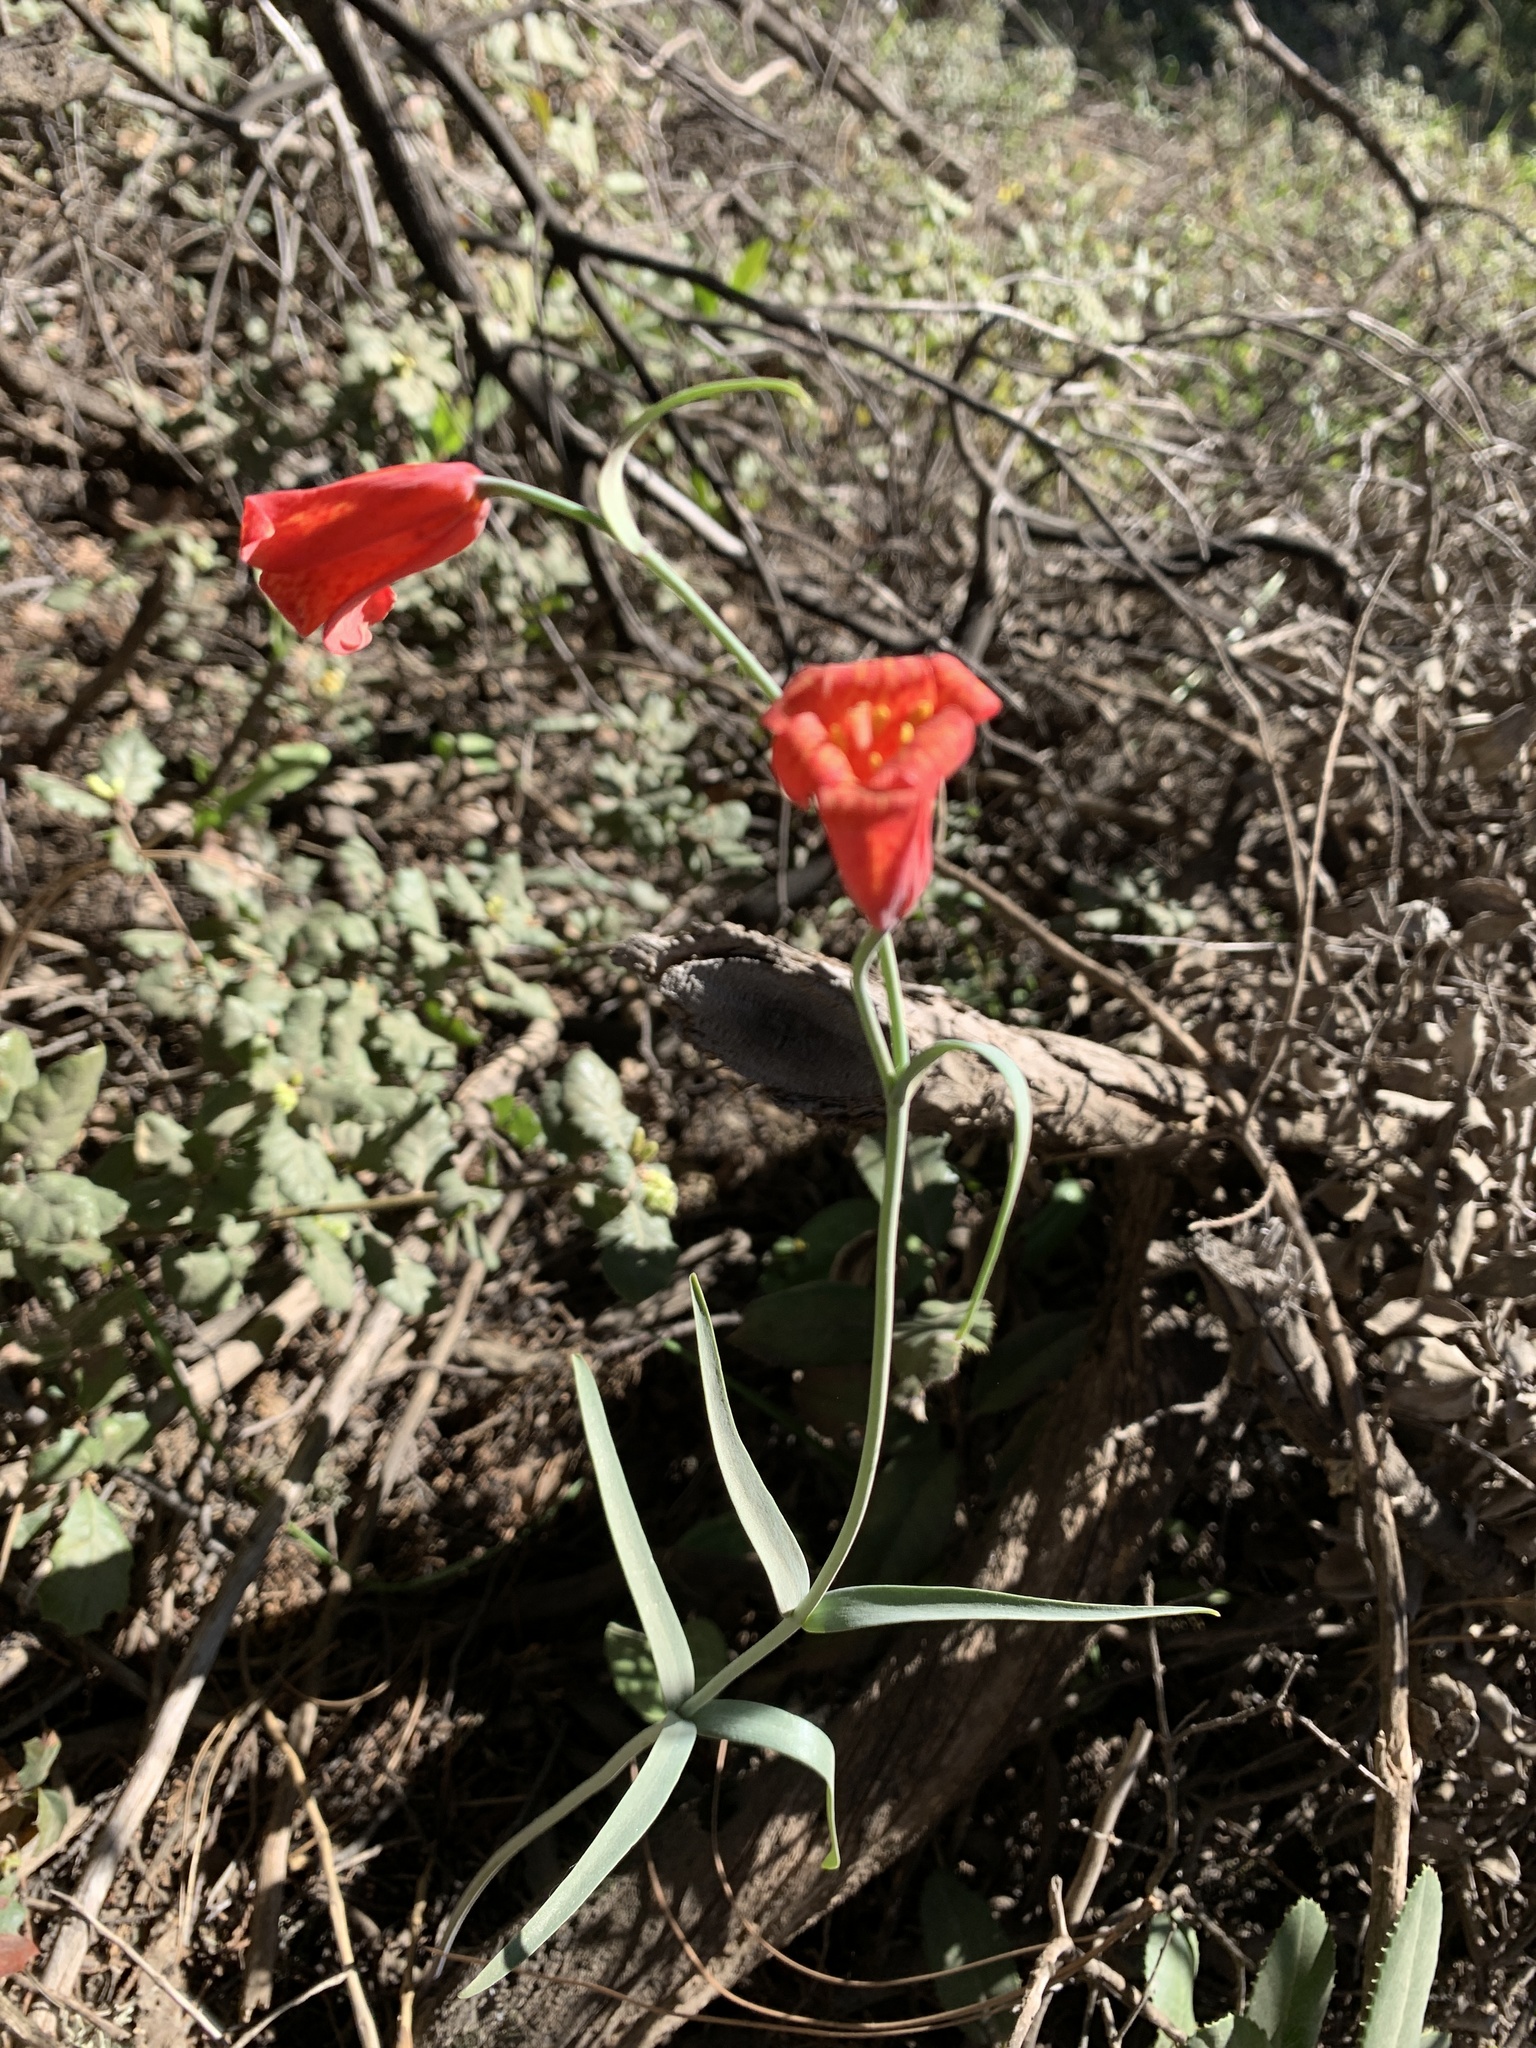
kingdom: Plantae
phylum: Tracheophyta
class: Liliopsida
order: Liliales
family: Liliaceae
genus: Fritillaria
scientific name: Fritillaria recurva
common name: Scarlet fritillary
